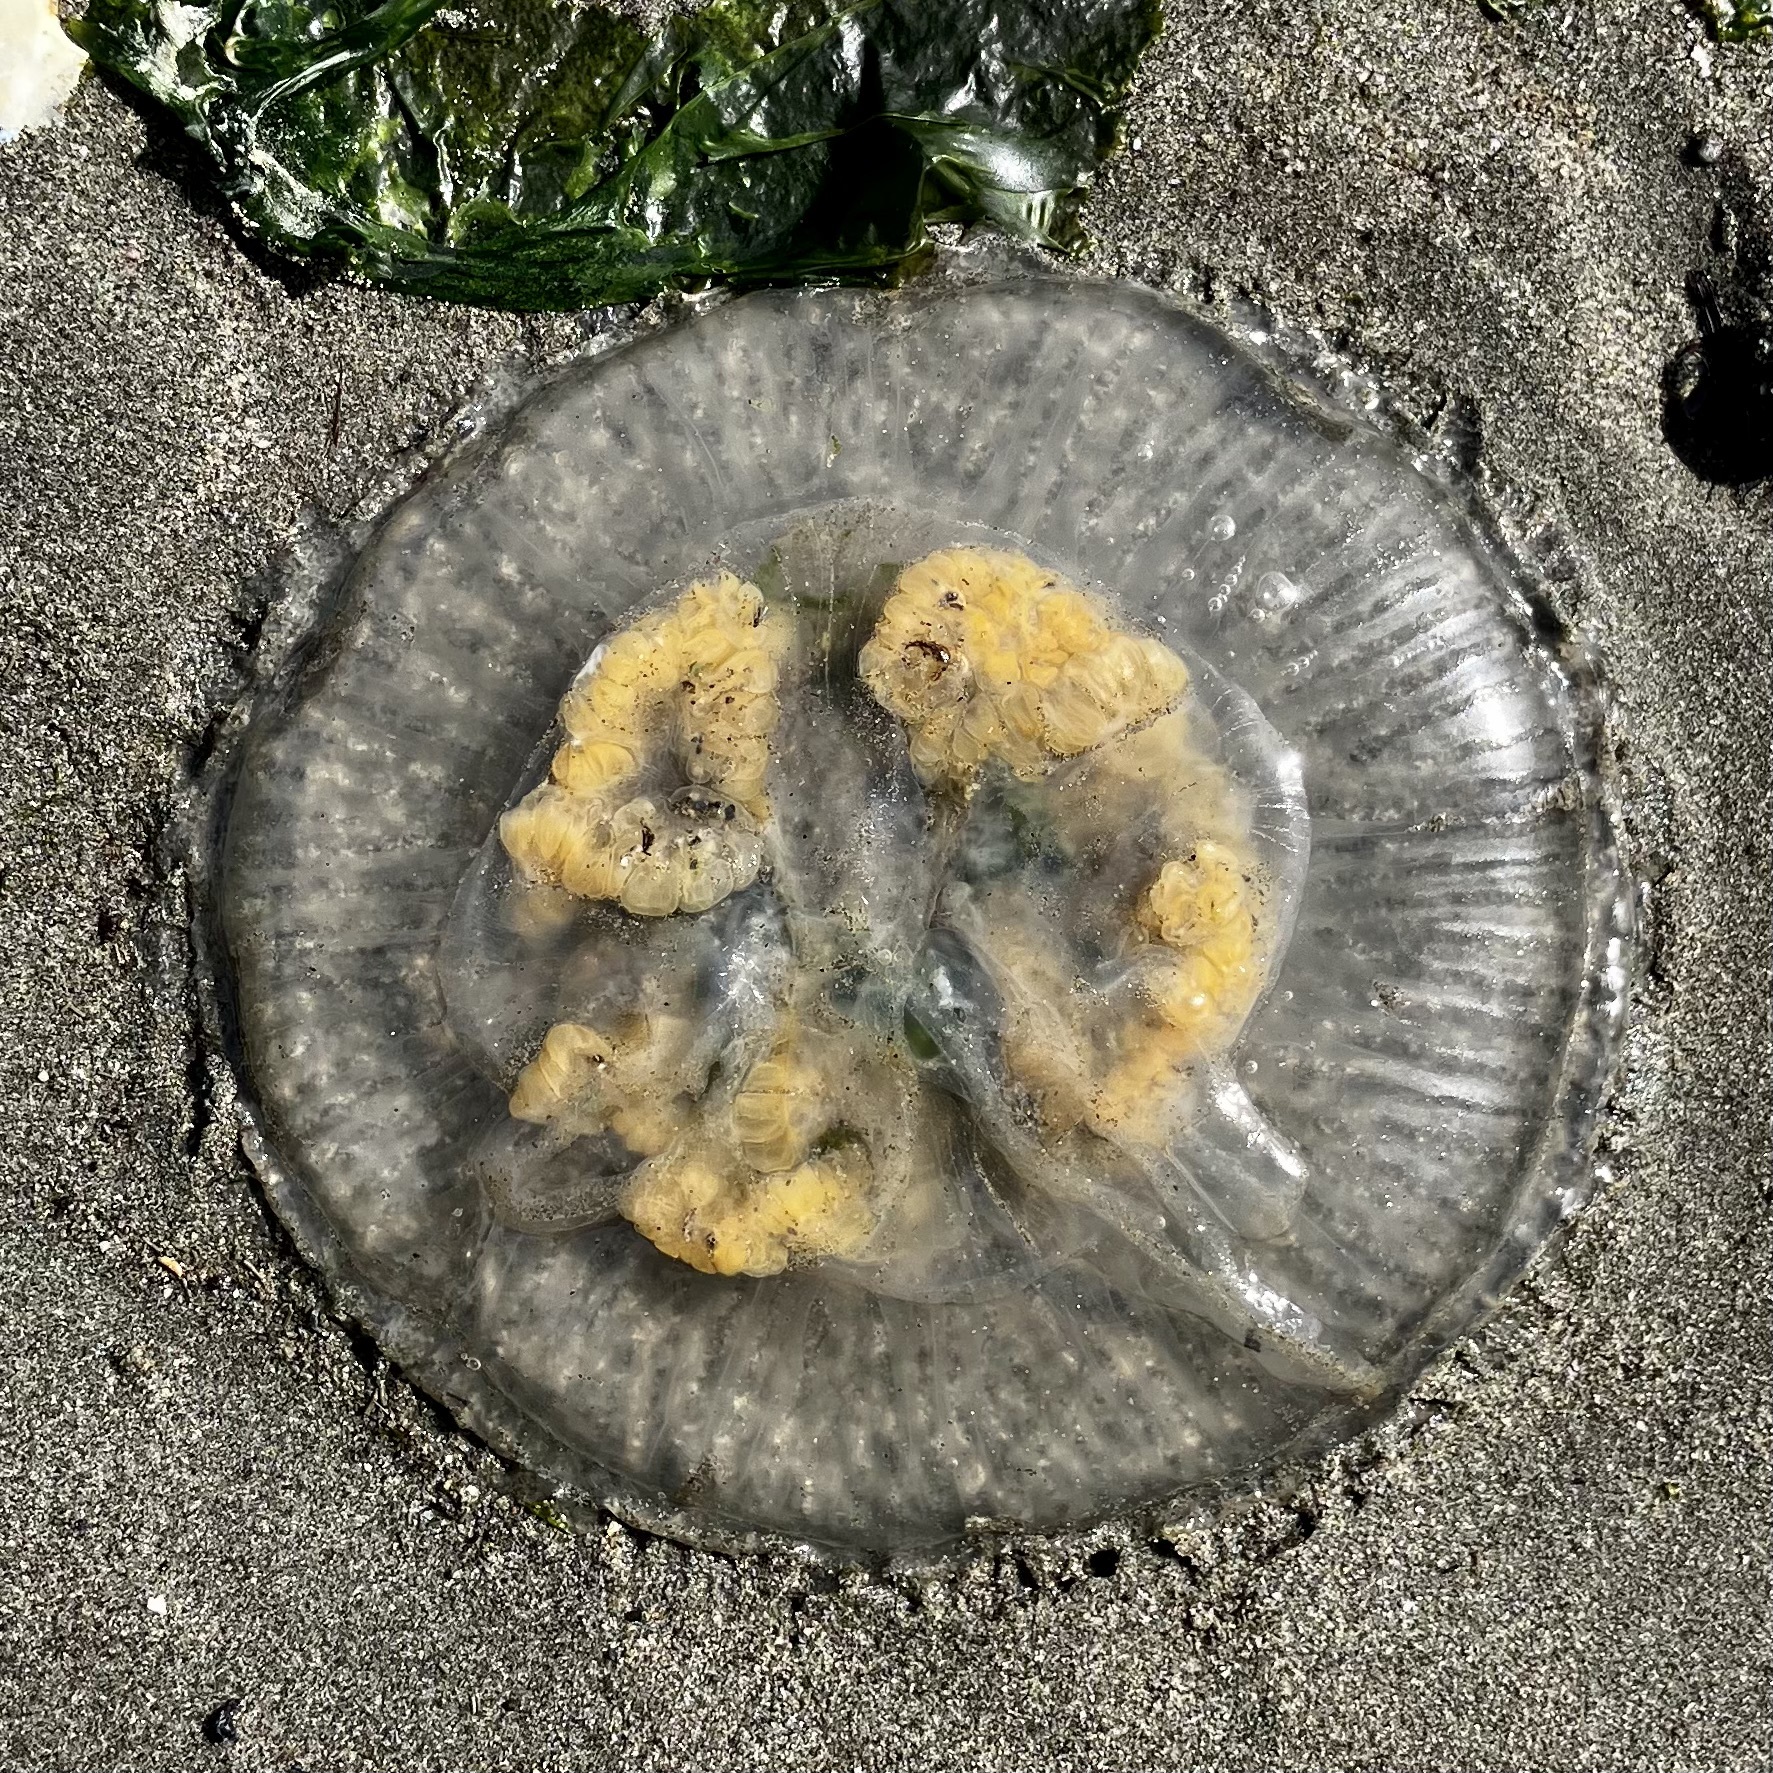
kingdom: Animalia
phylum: Cnidaria
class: Scyphozoa
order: Semaeostomeae
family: Phacellophoridae
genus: Phacellophora
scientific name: Phacellophora camtschatica
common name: Fried-egg jellyfish
